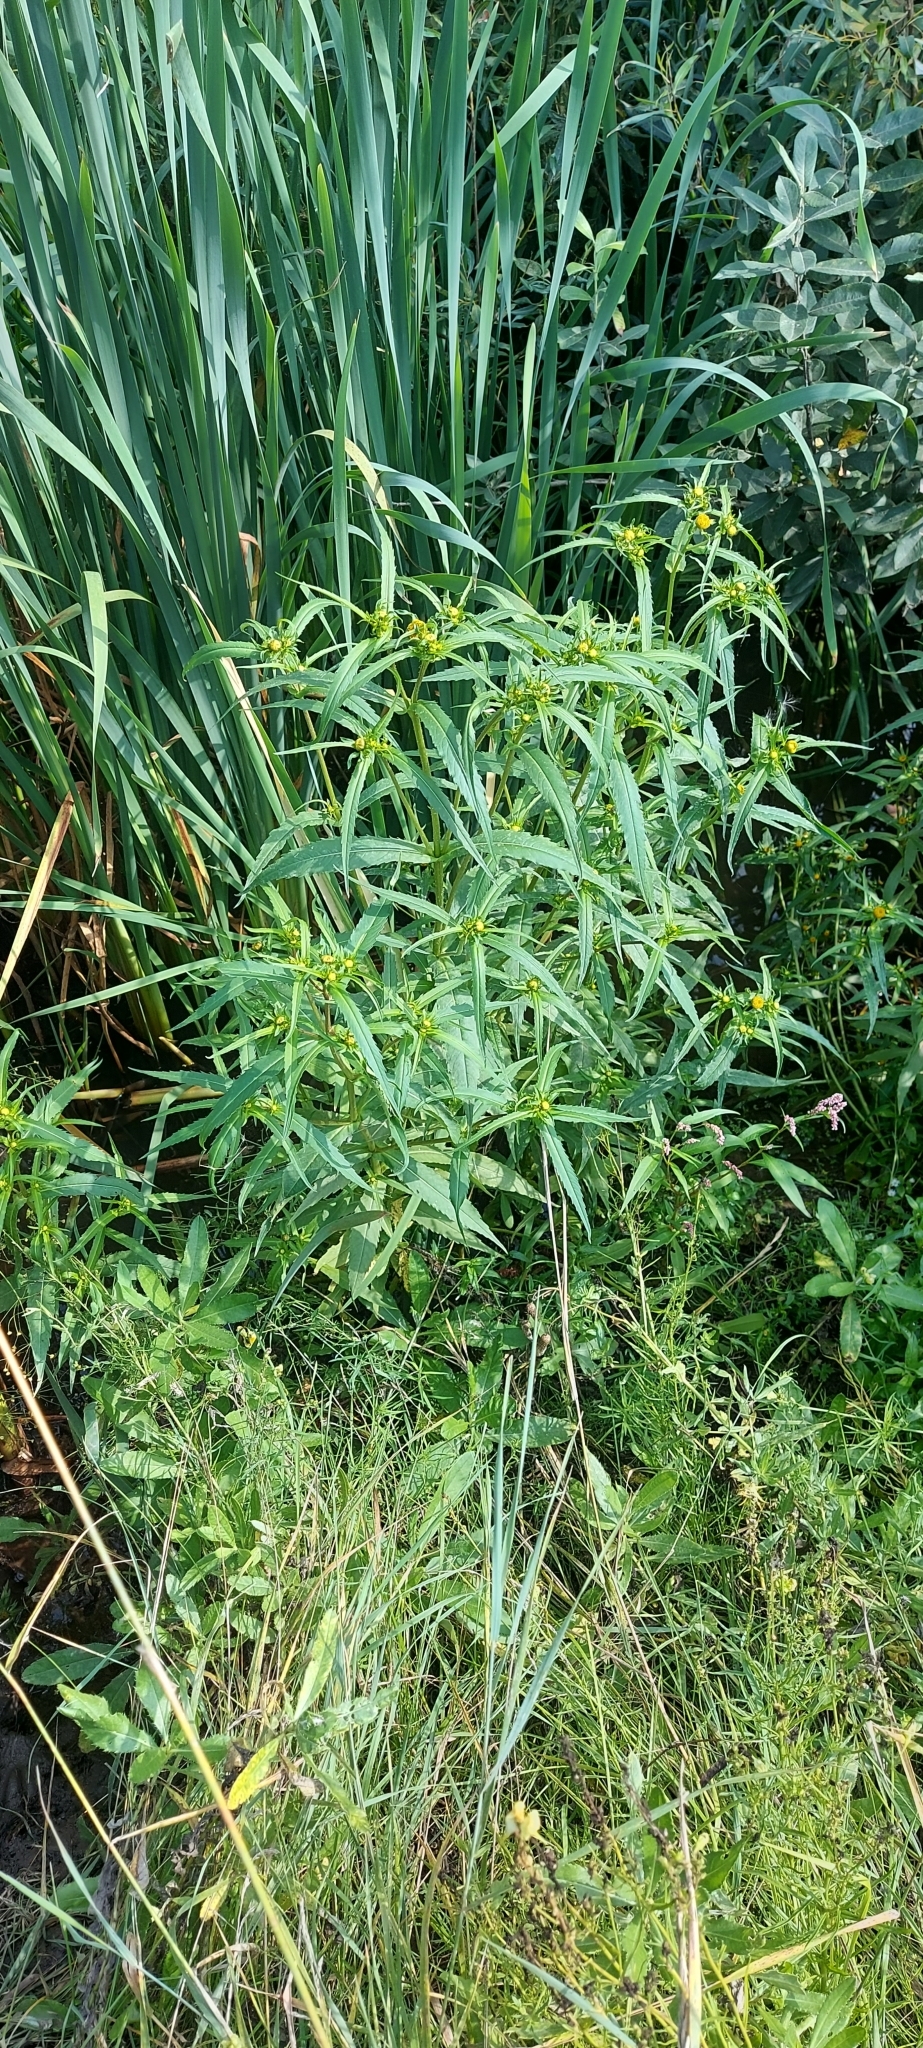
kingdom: Plantae
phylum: Tracheophyta
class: Magnoliopsida
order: Asterales
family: Asteraceae
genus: Bidens
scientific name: Bidens cernua
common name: Nodding bur-marigold
